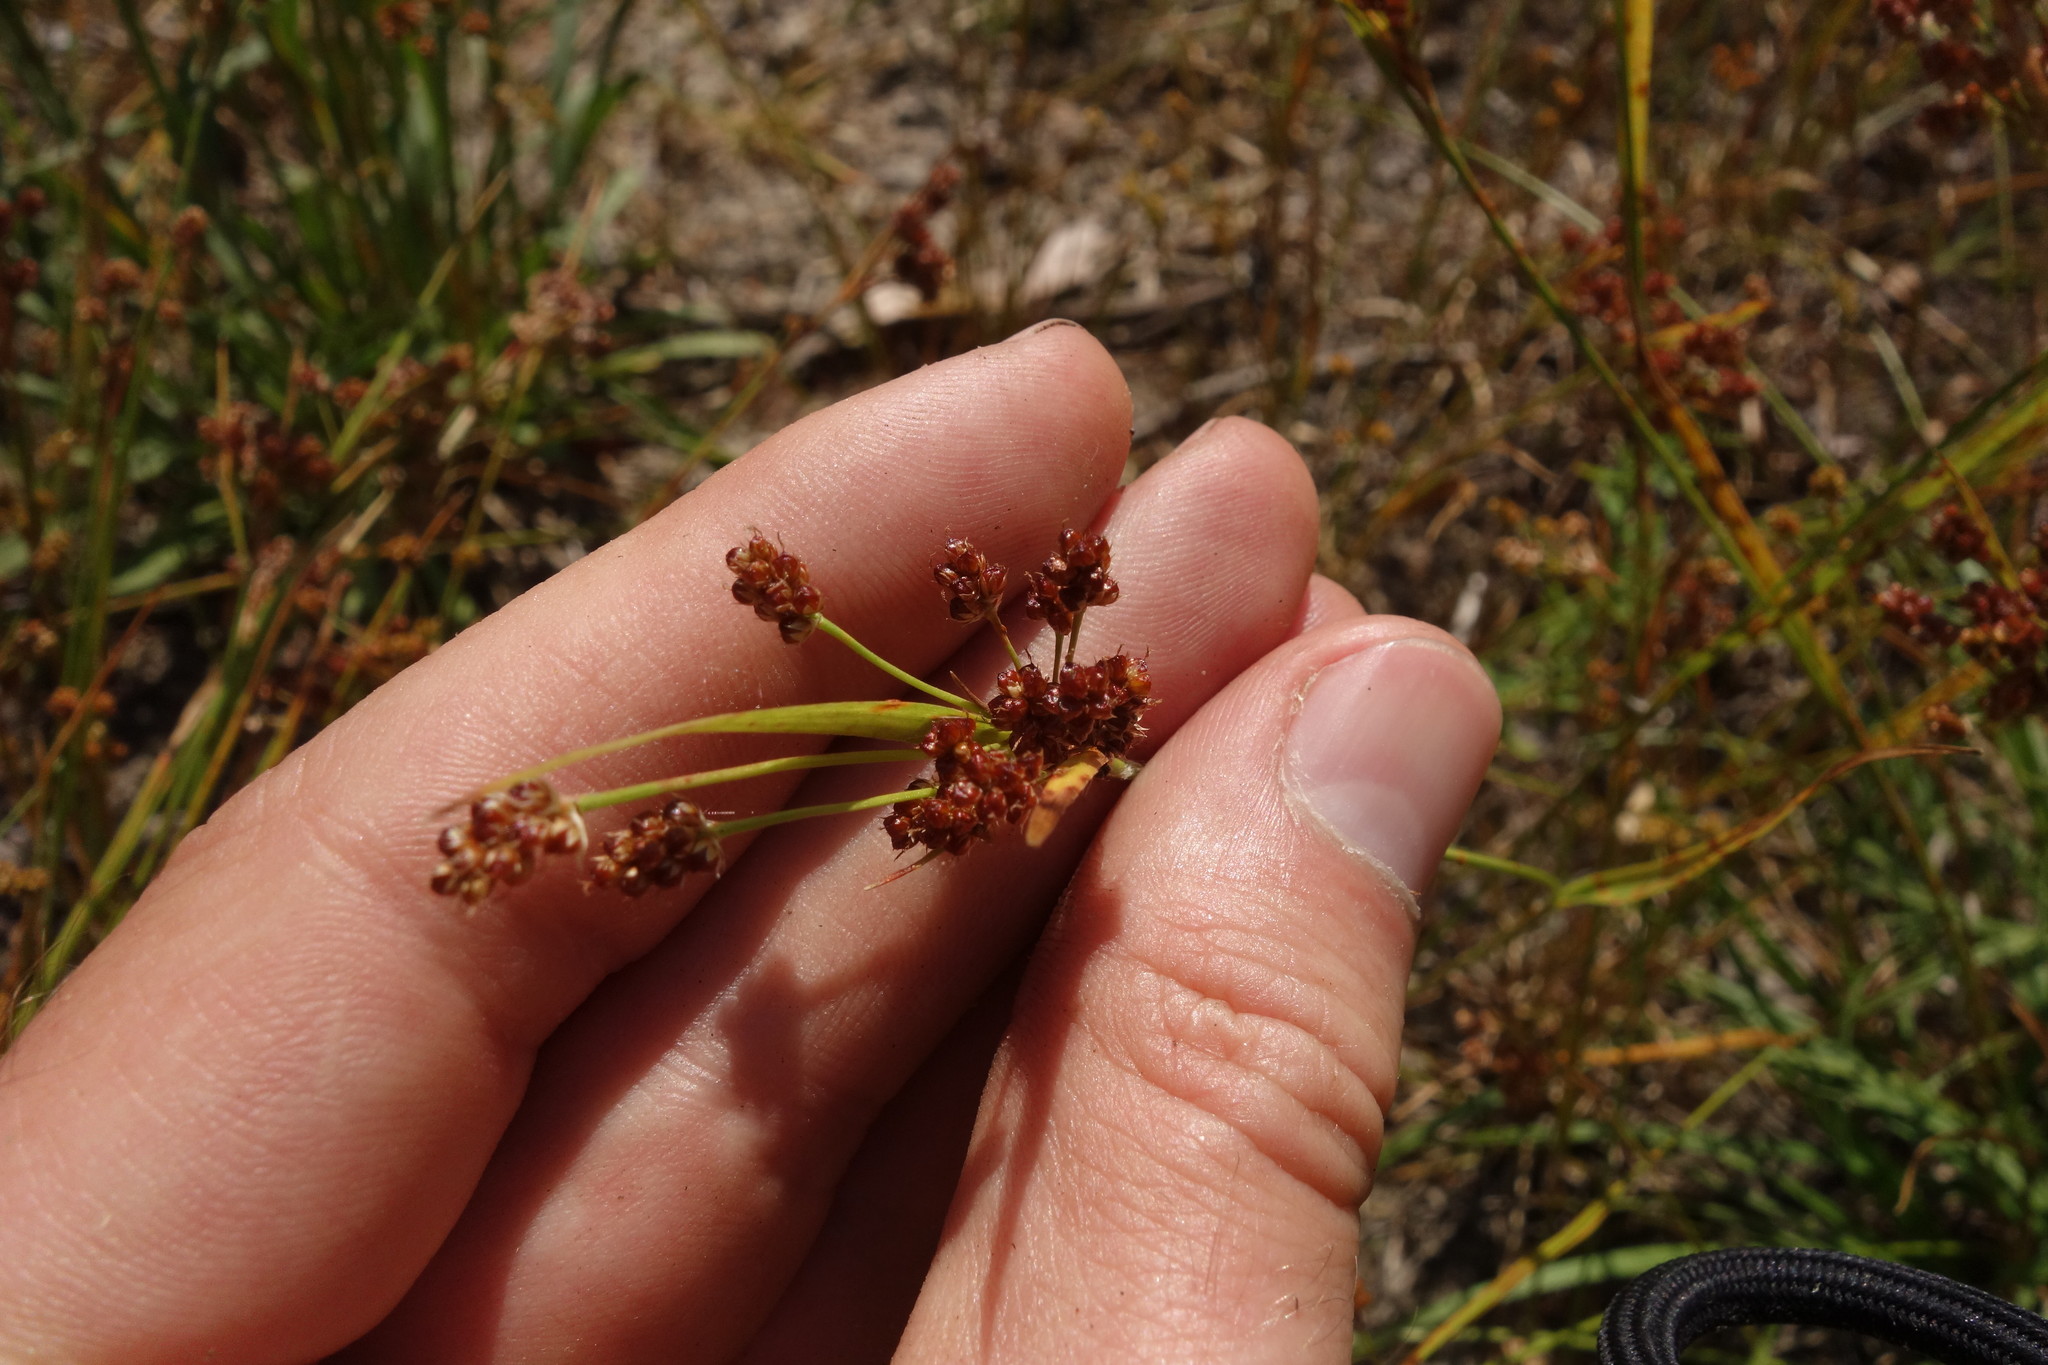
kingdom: Plantae
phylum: Tracheophyta
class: Liliopsida
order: Poales
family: Juncaceae
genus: Luzula
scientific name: Luzula pallescens
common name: Fen wood-rush
